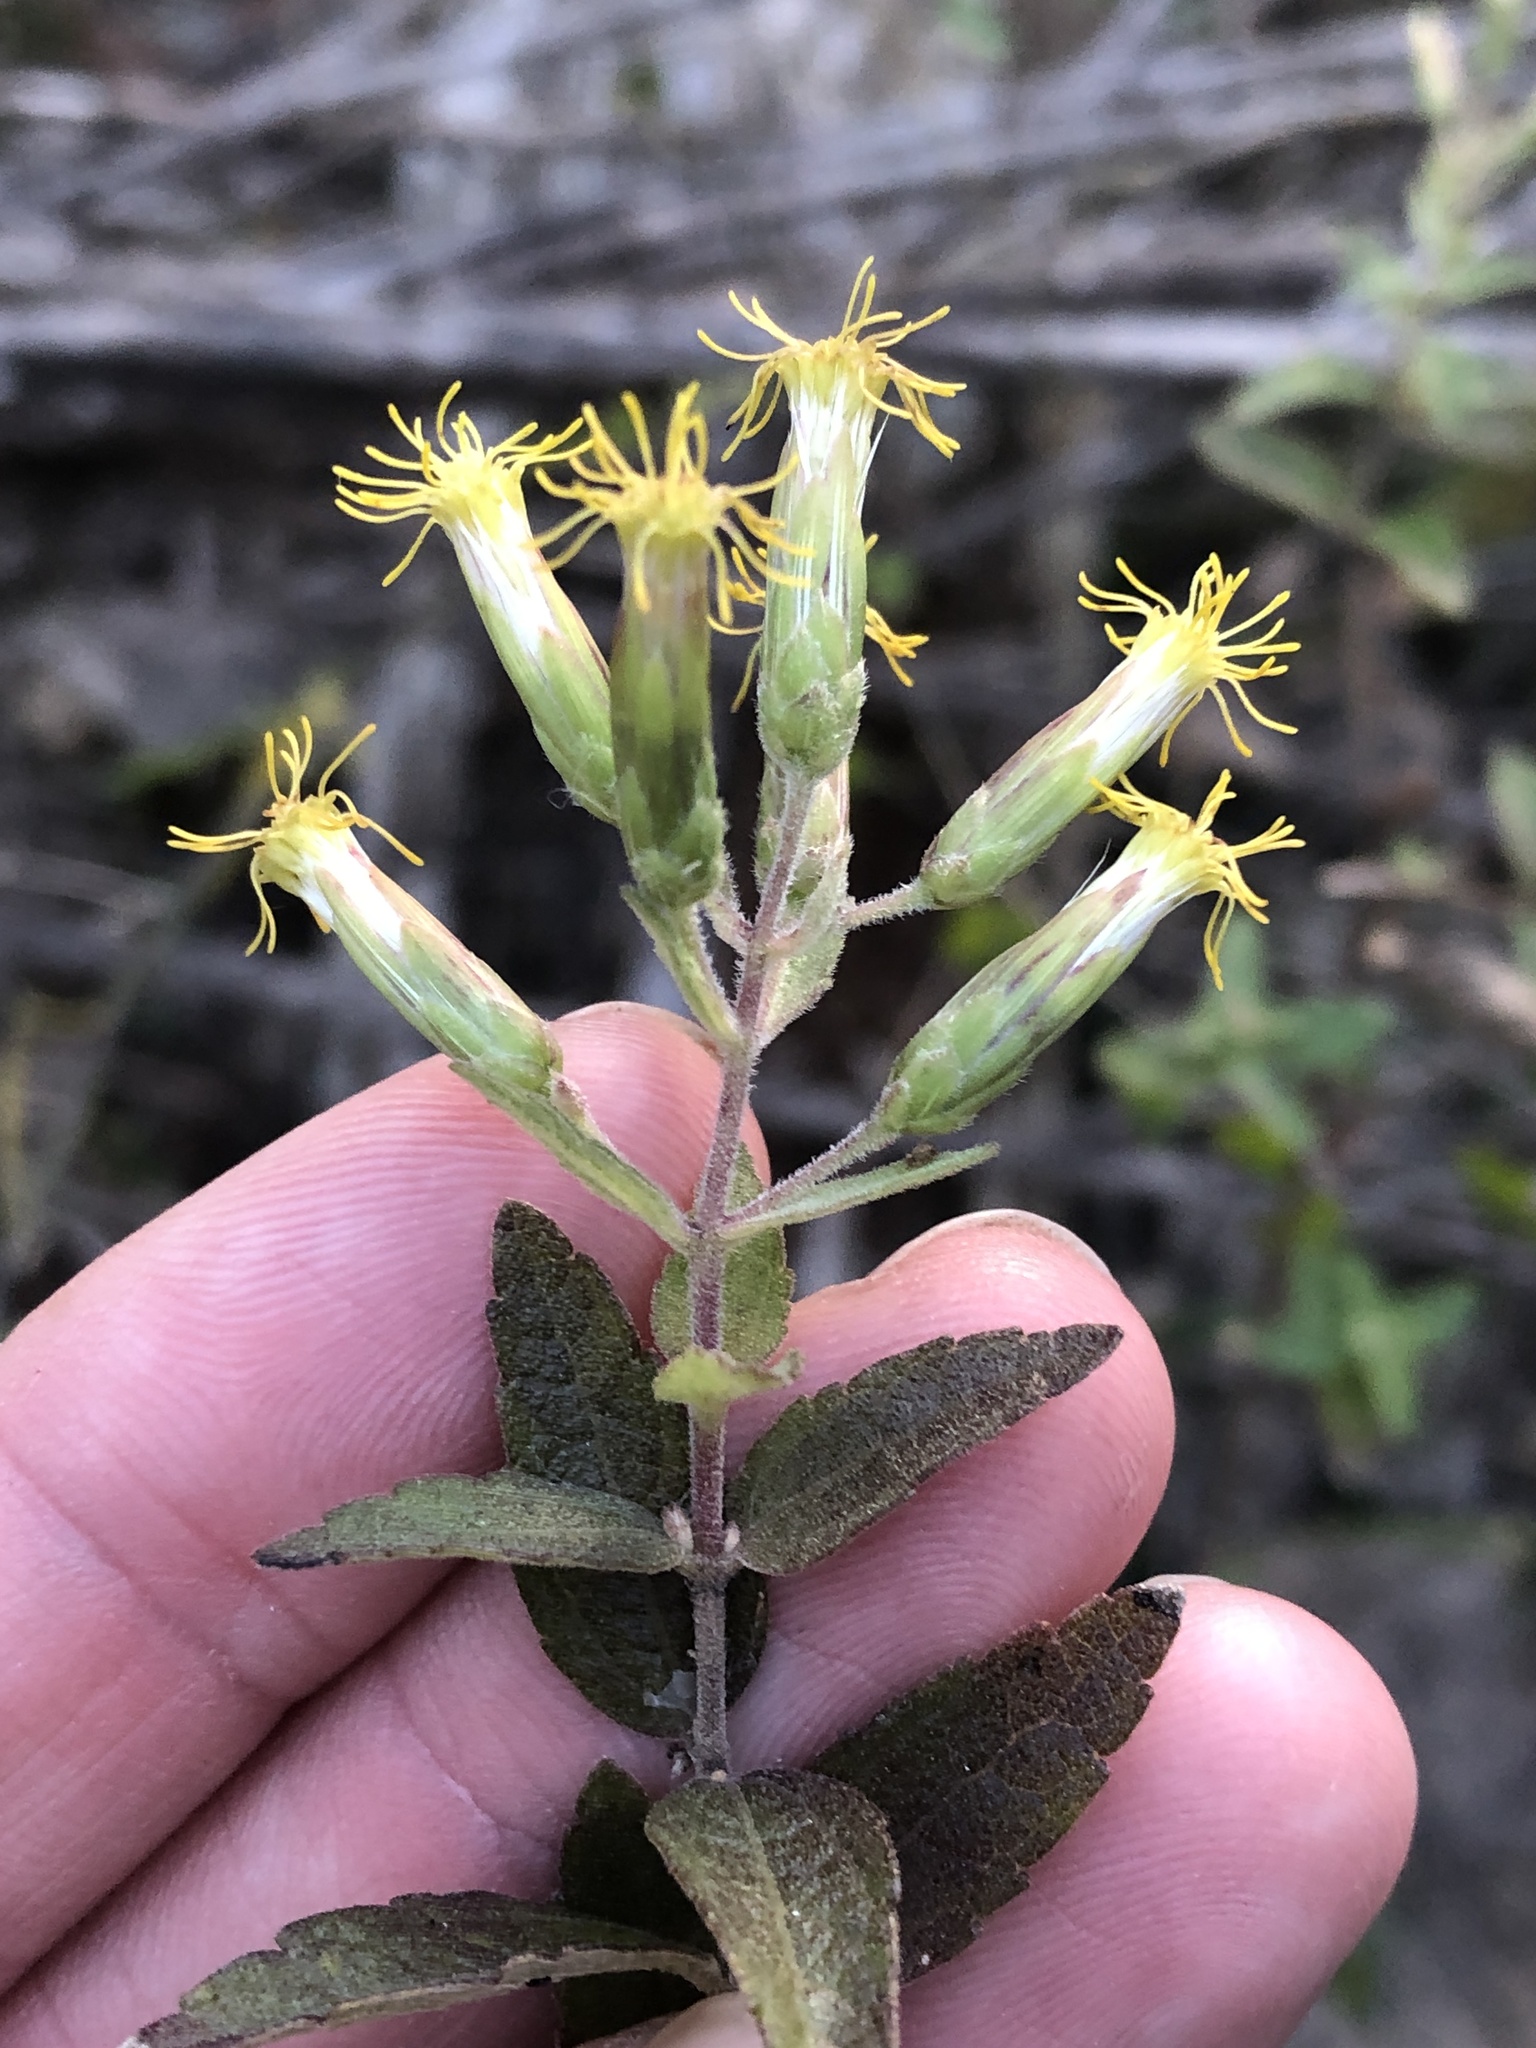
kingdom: Plantae
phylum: Tracheophyta
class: Magnoliopsida
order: Asterales
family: Asteraceae
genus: Brickellia
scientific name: Brickellia cylindracea
